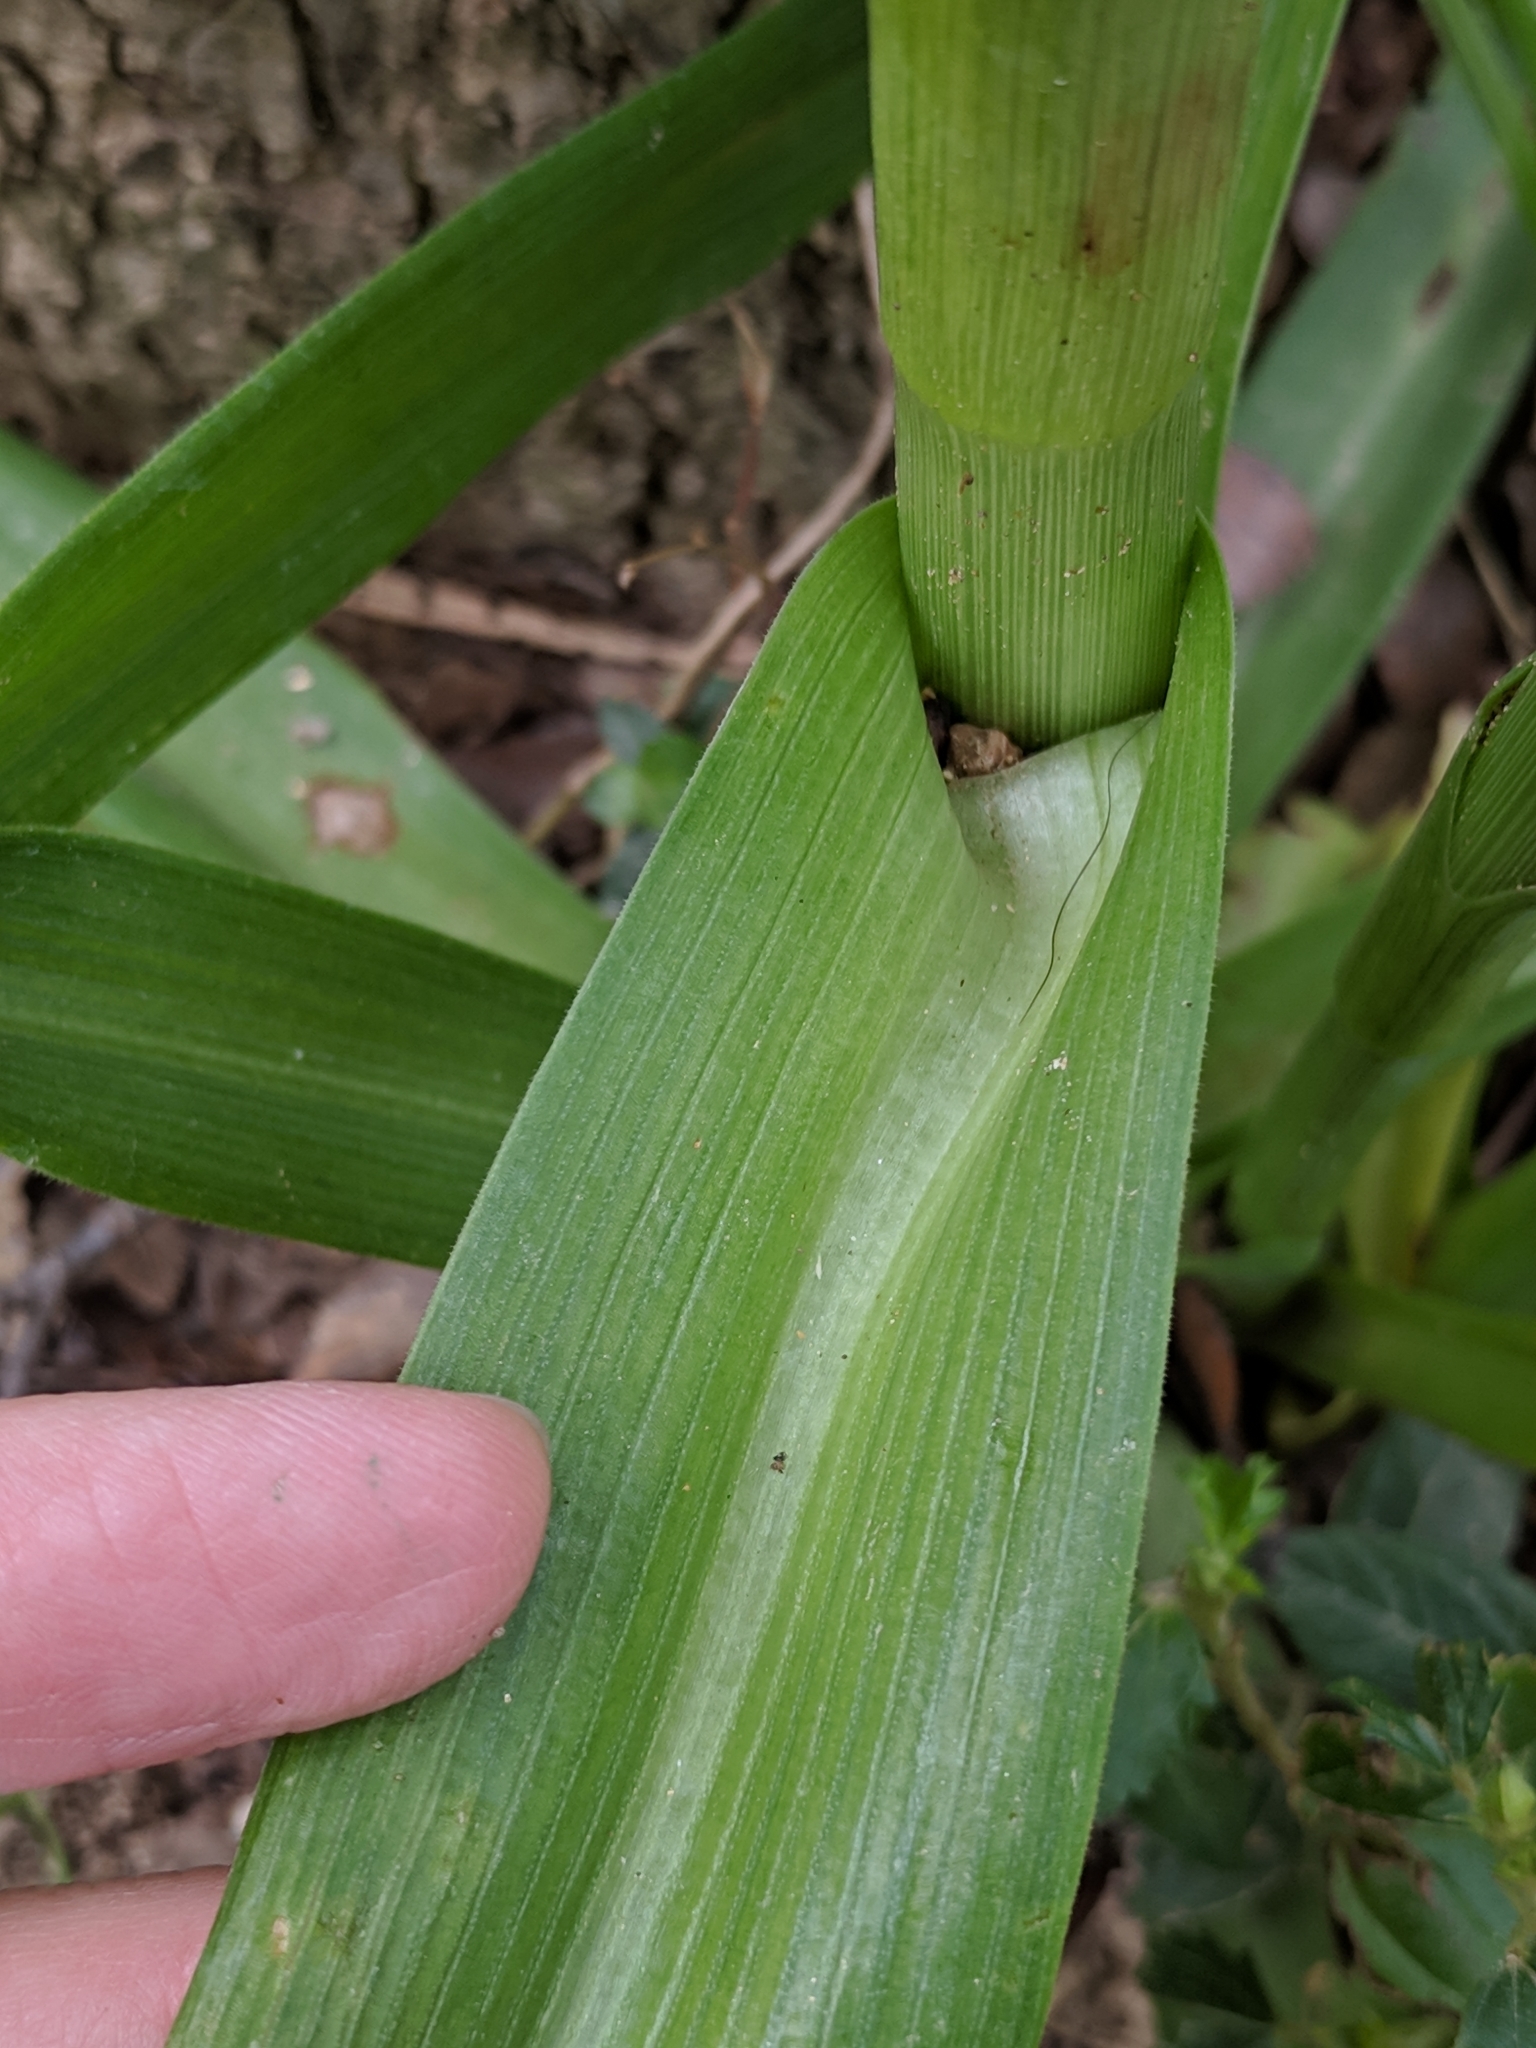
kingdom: Plantae
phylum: Tracheophyta
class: Liliopsida
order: Commelinales
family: Commelinaceae
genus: Tradescantia
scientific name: Tradescantia gigantea
